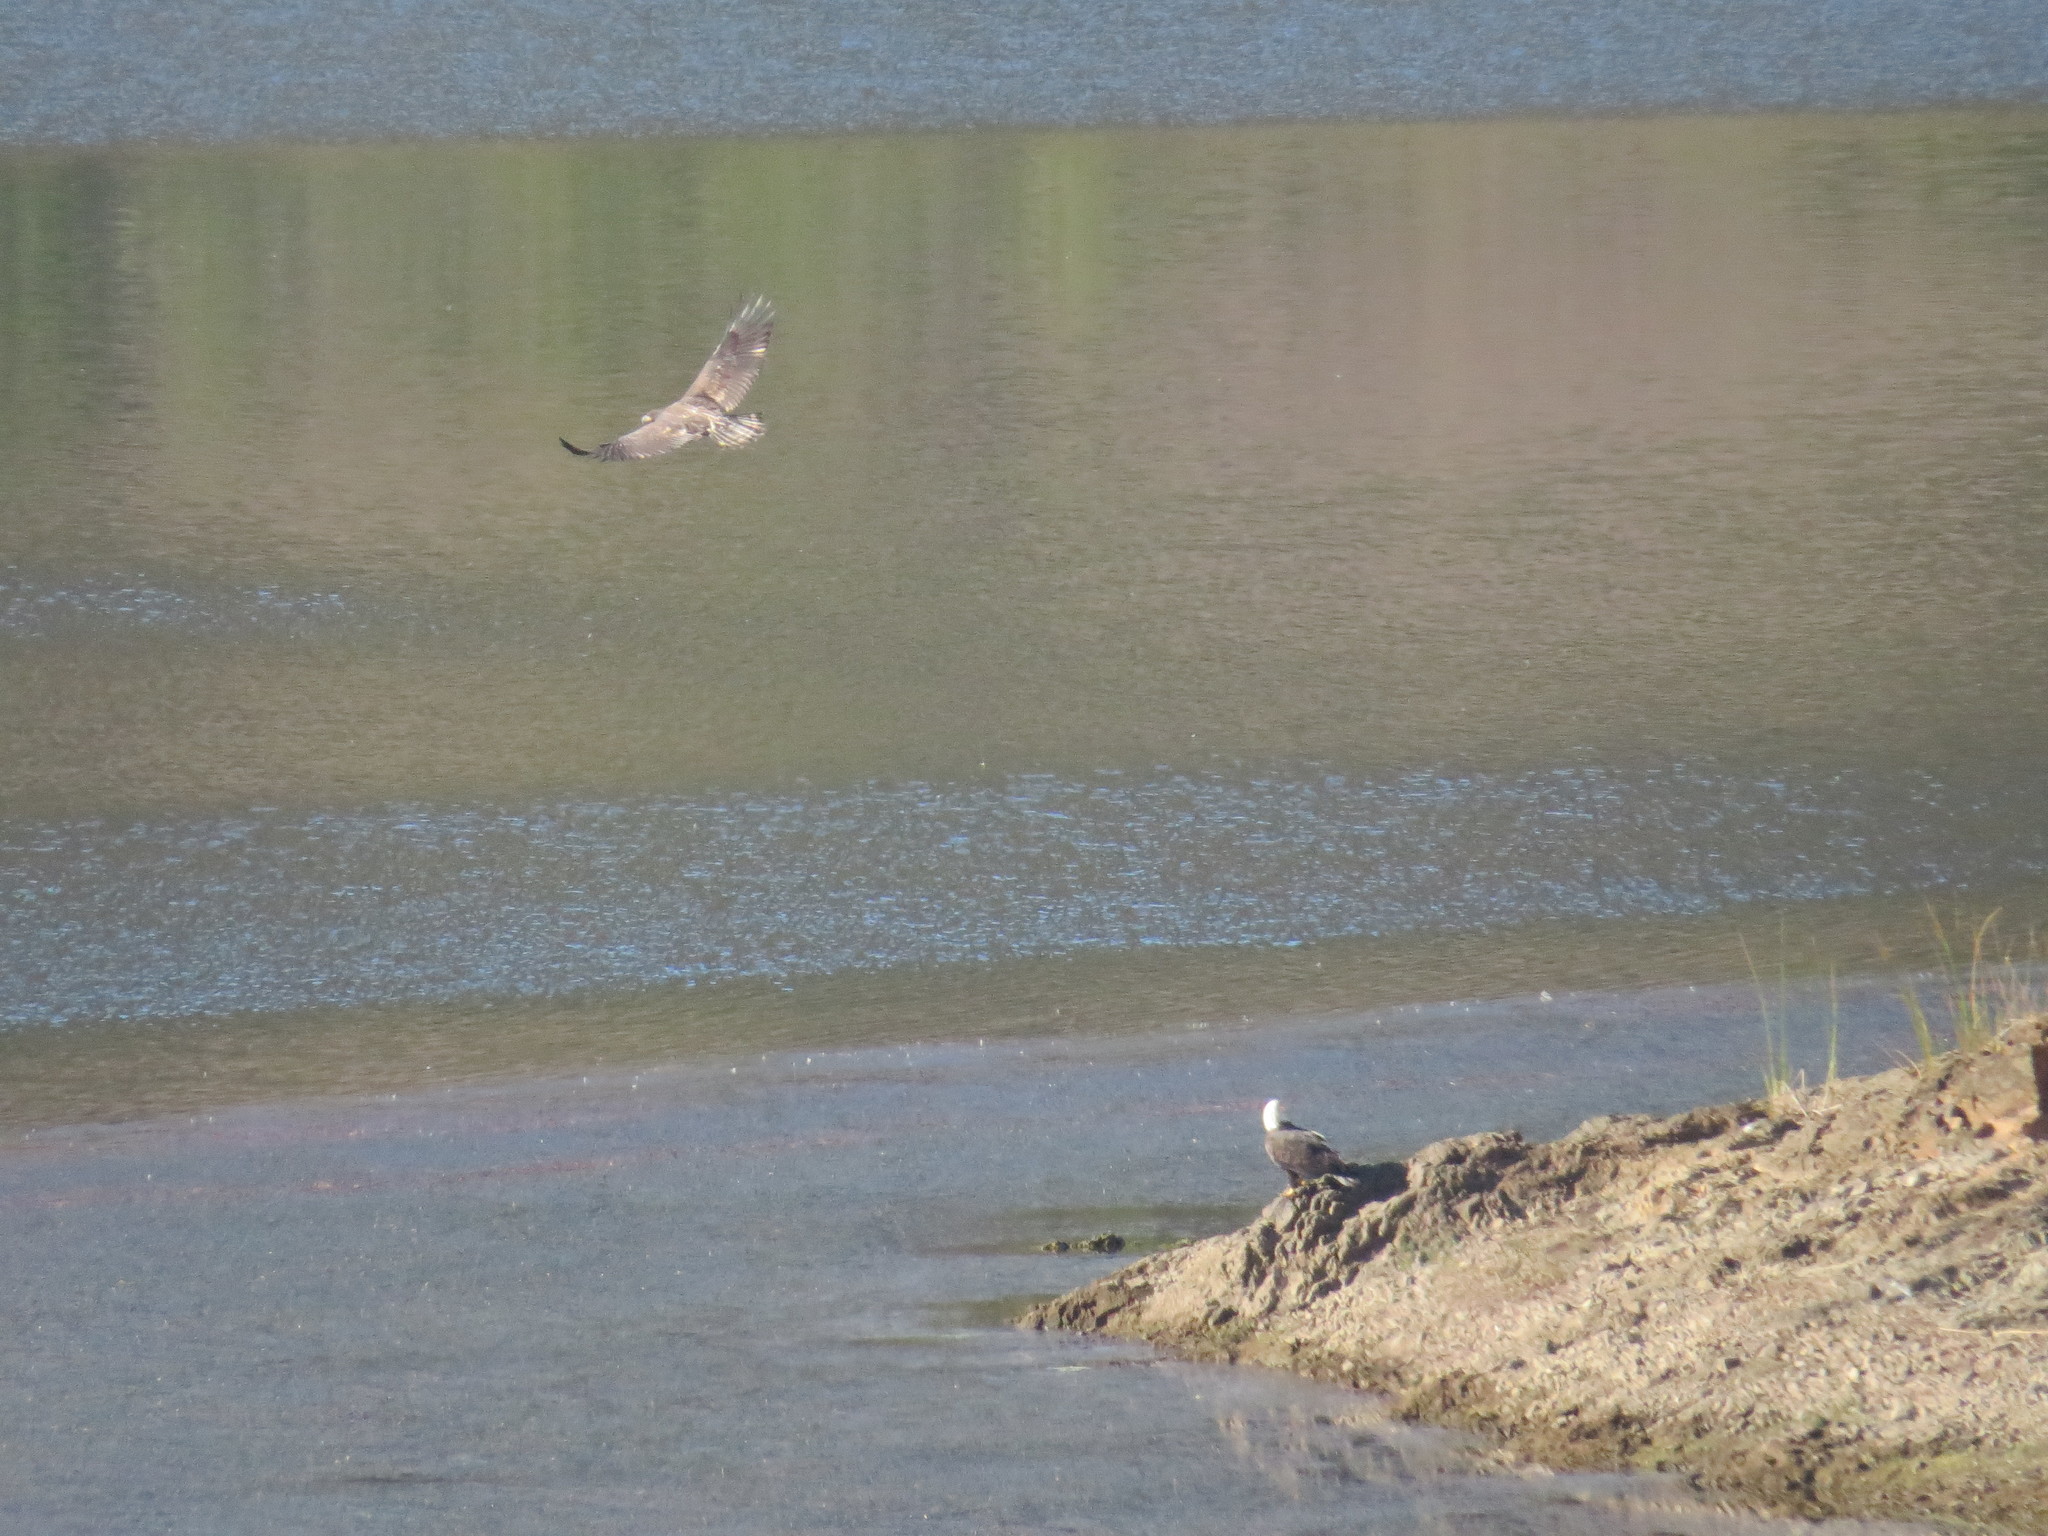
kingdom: Animalia
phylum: Chordata
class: Aves
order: Accipitriformes
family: Accipitridae
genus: Haliaeetus
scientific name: Haliaeetus leucocephalus
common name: Bald eagle
